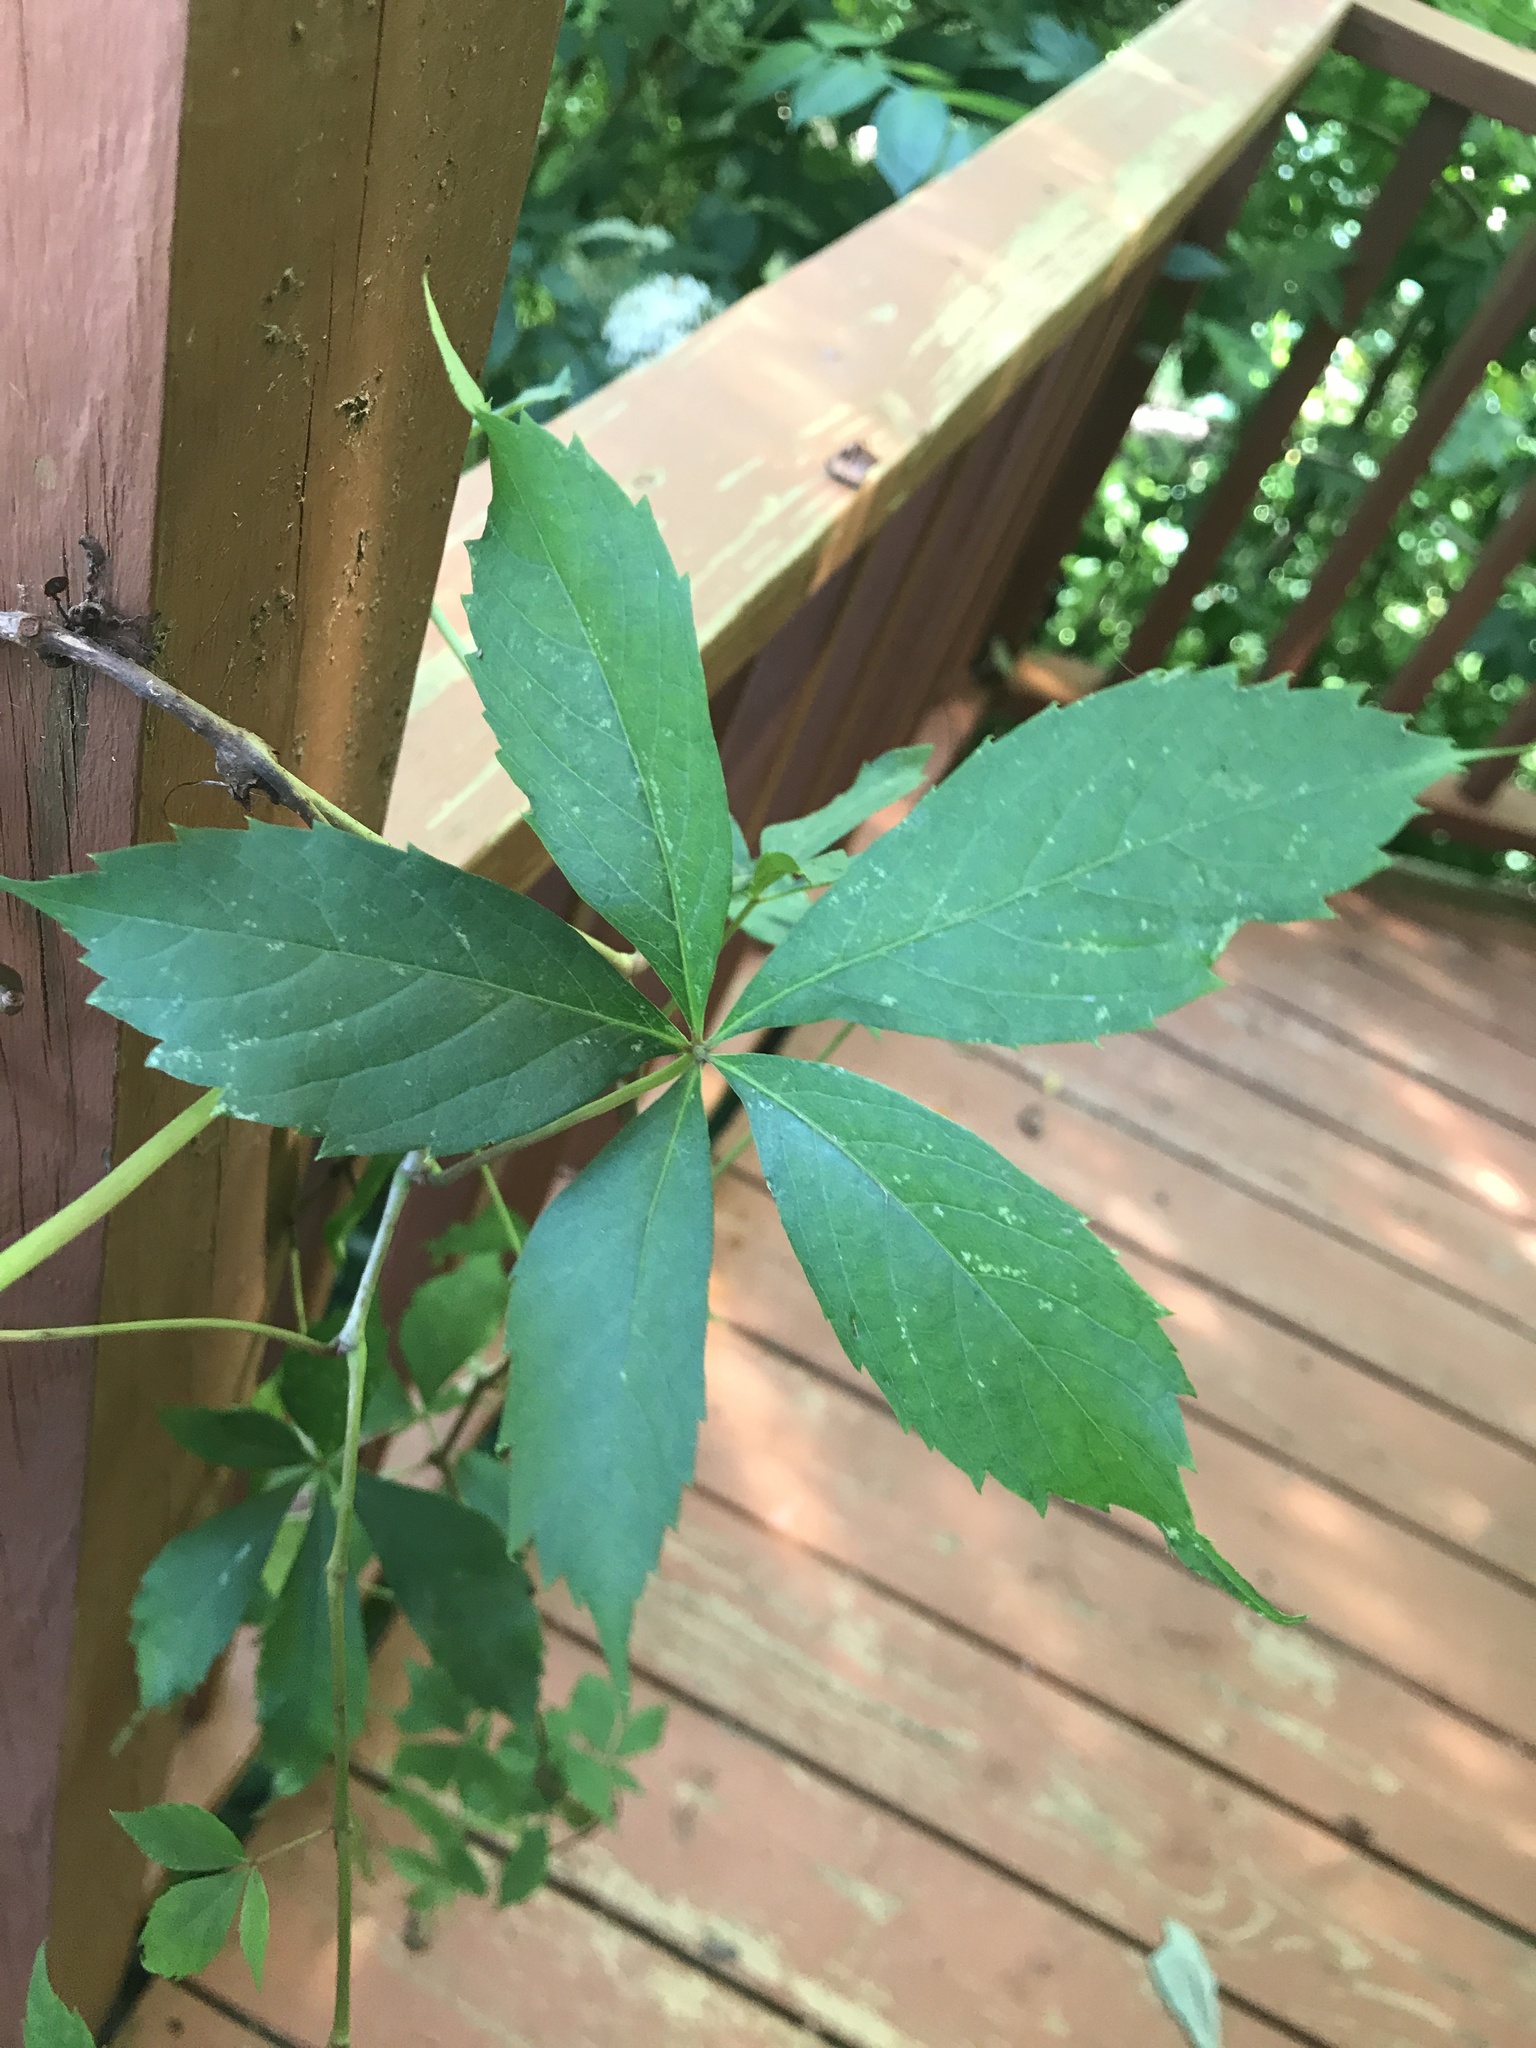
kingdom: Plantae
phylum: Tracheophyta
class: Magnoliopsida
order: Vitales
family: Vitaceae
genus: Parthenocissus
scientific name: Parthenocissus quinquefolia
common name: Virginia-creeper
